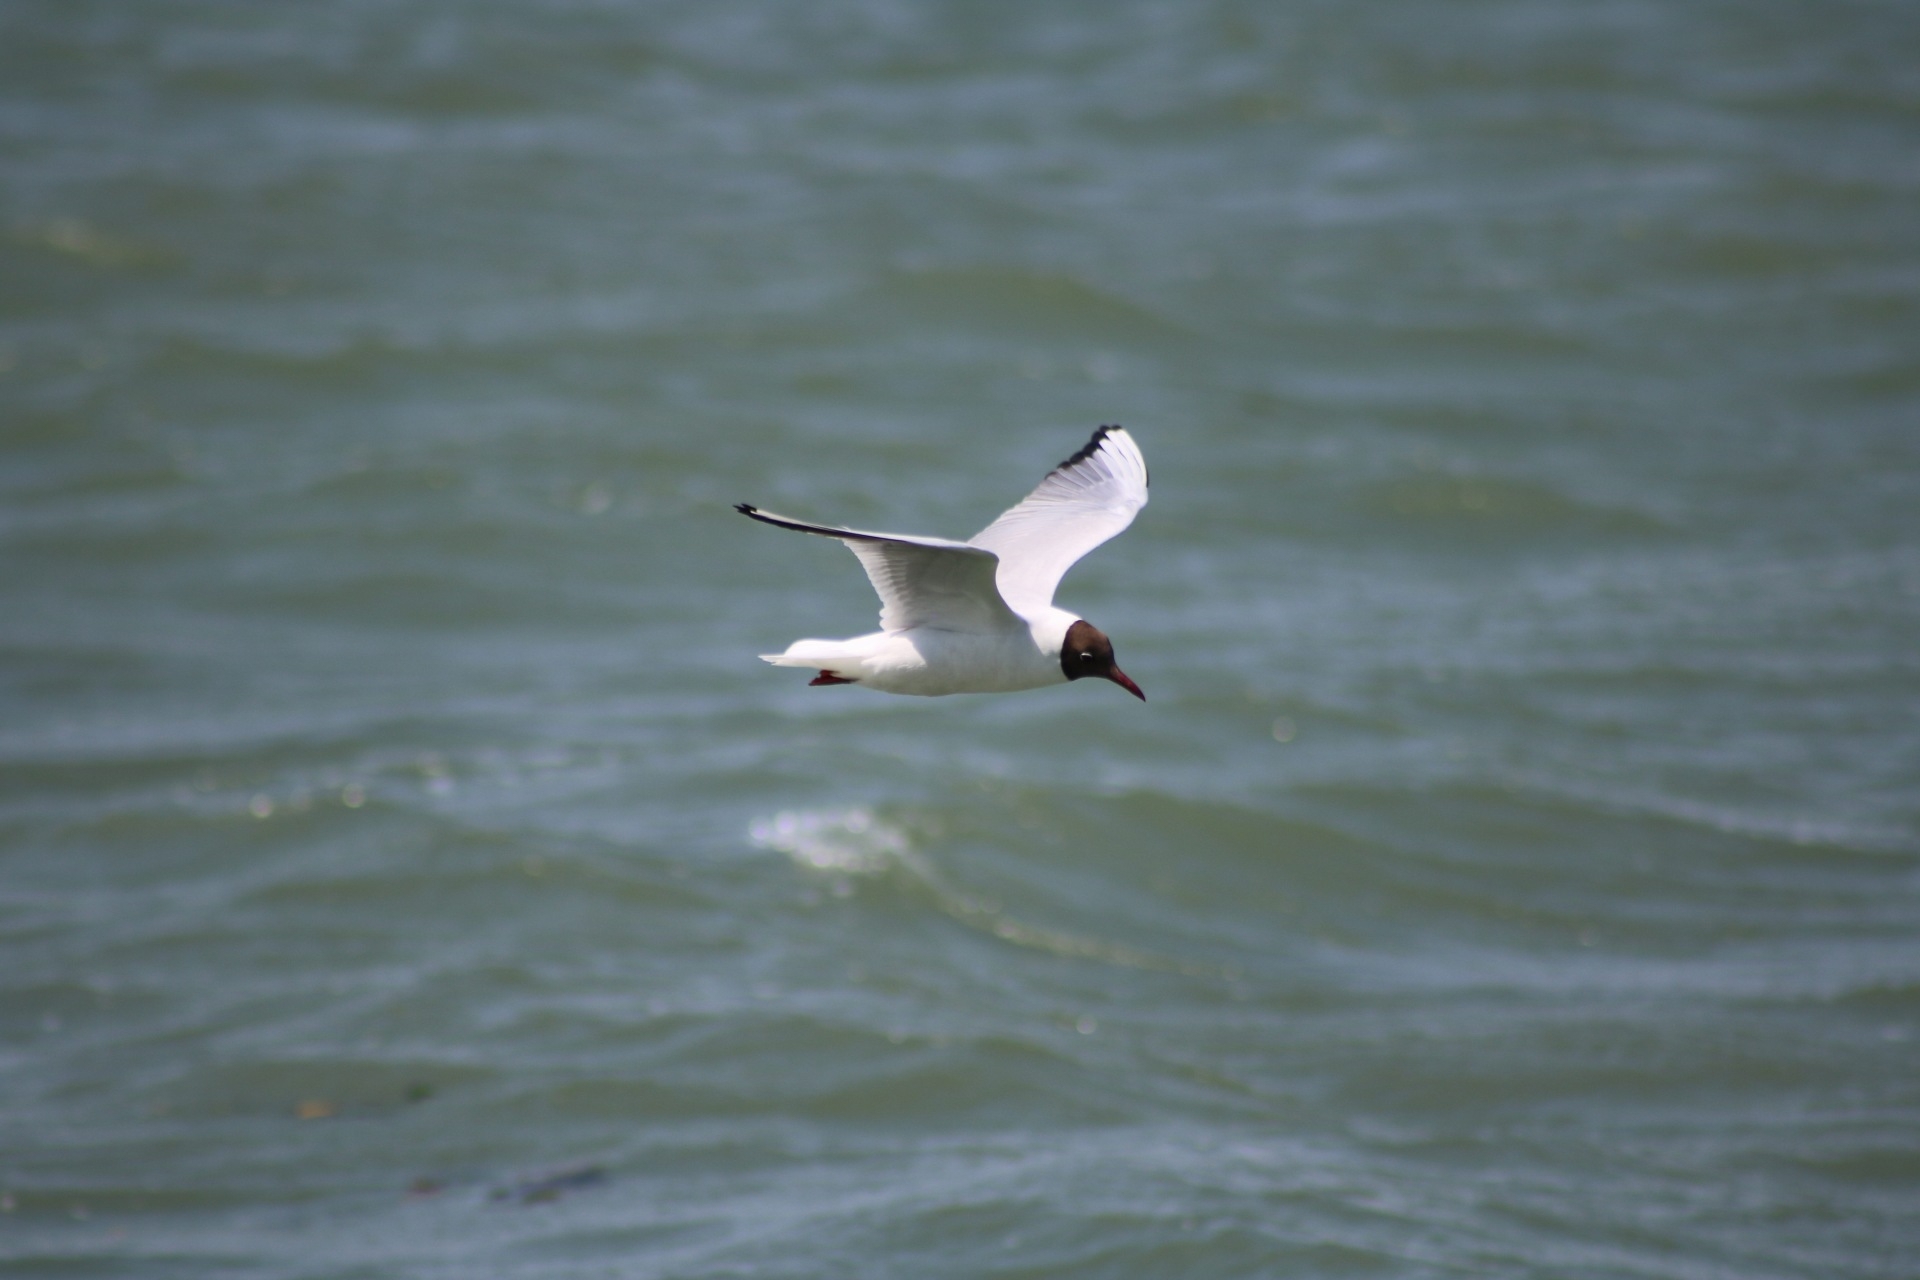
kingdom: Animalia
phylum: Chordata
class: Aves
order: Charadriiformes
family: Laridae
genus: Chroicocephalus
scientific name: Chroicocephalus ridibundus
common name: Black-headed gull
